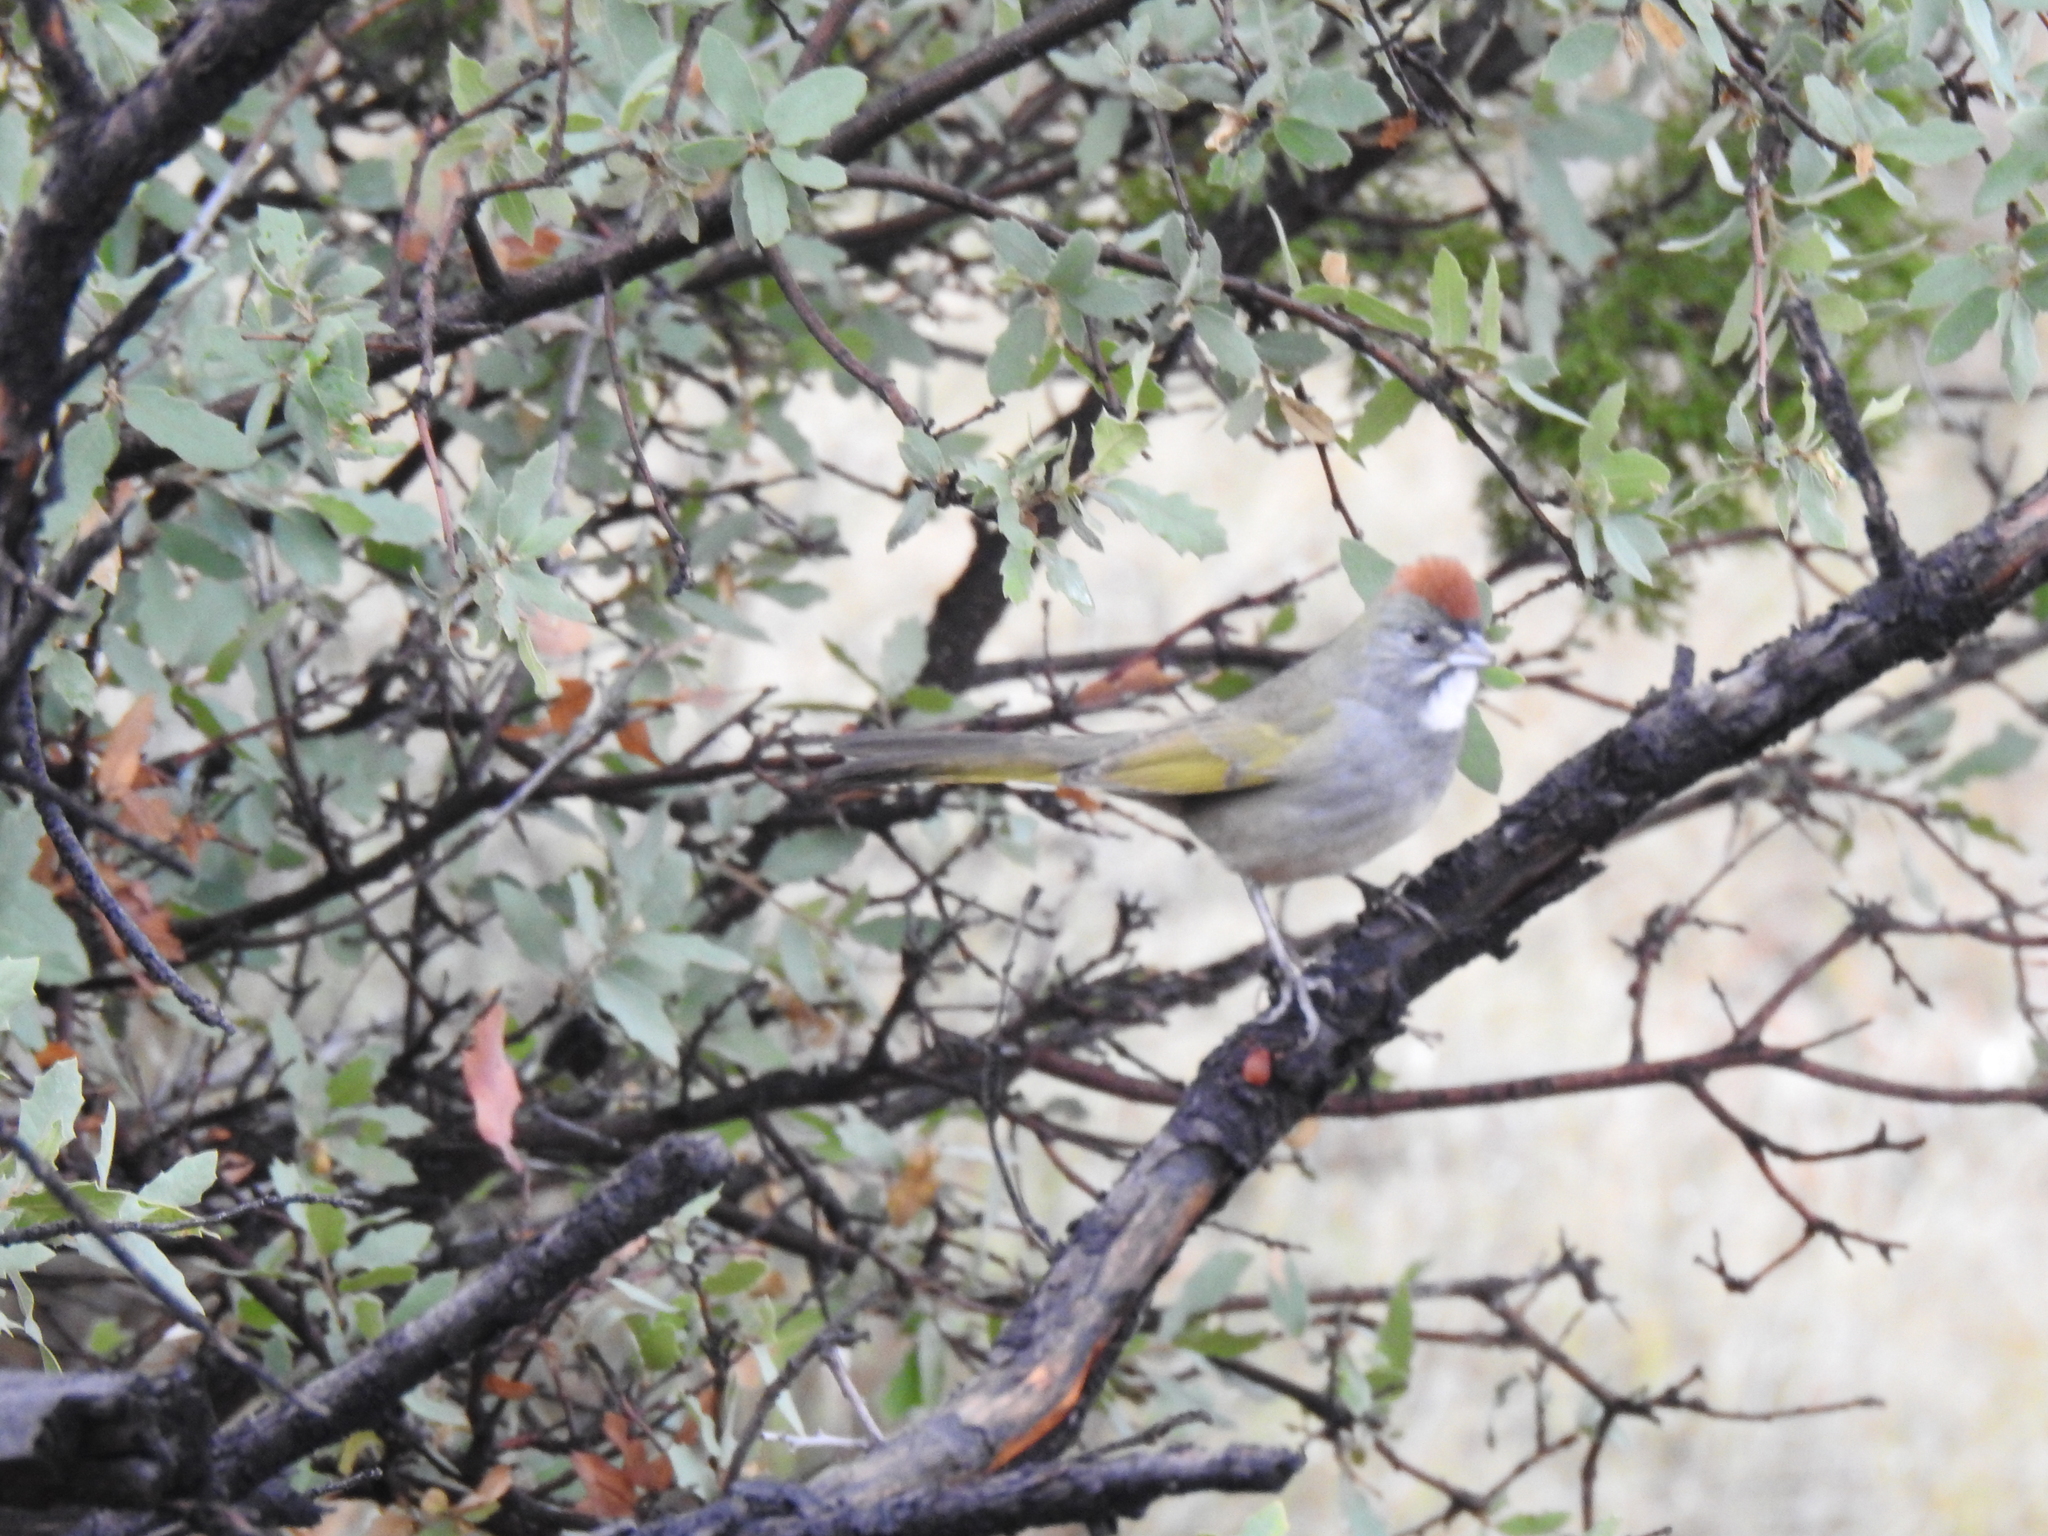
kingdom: Animalia
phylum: Chordata
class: Aves
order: Passeriformes
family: Passerellidae
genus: Pipilo
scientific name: Pipilo chlorurus
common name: Green-tailed towhee
